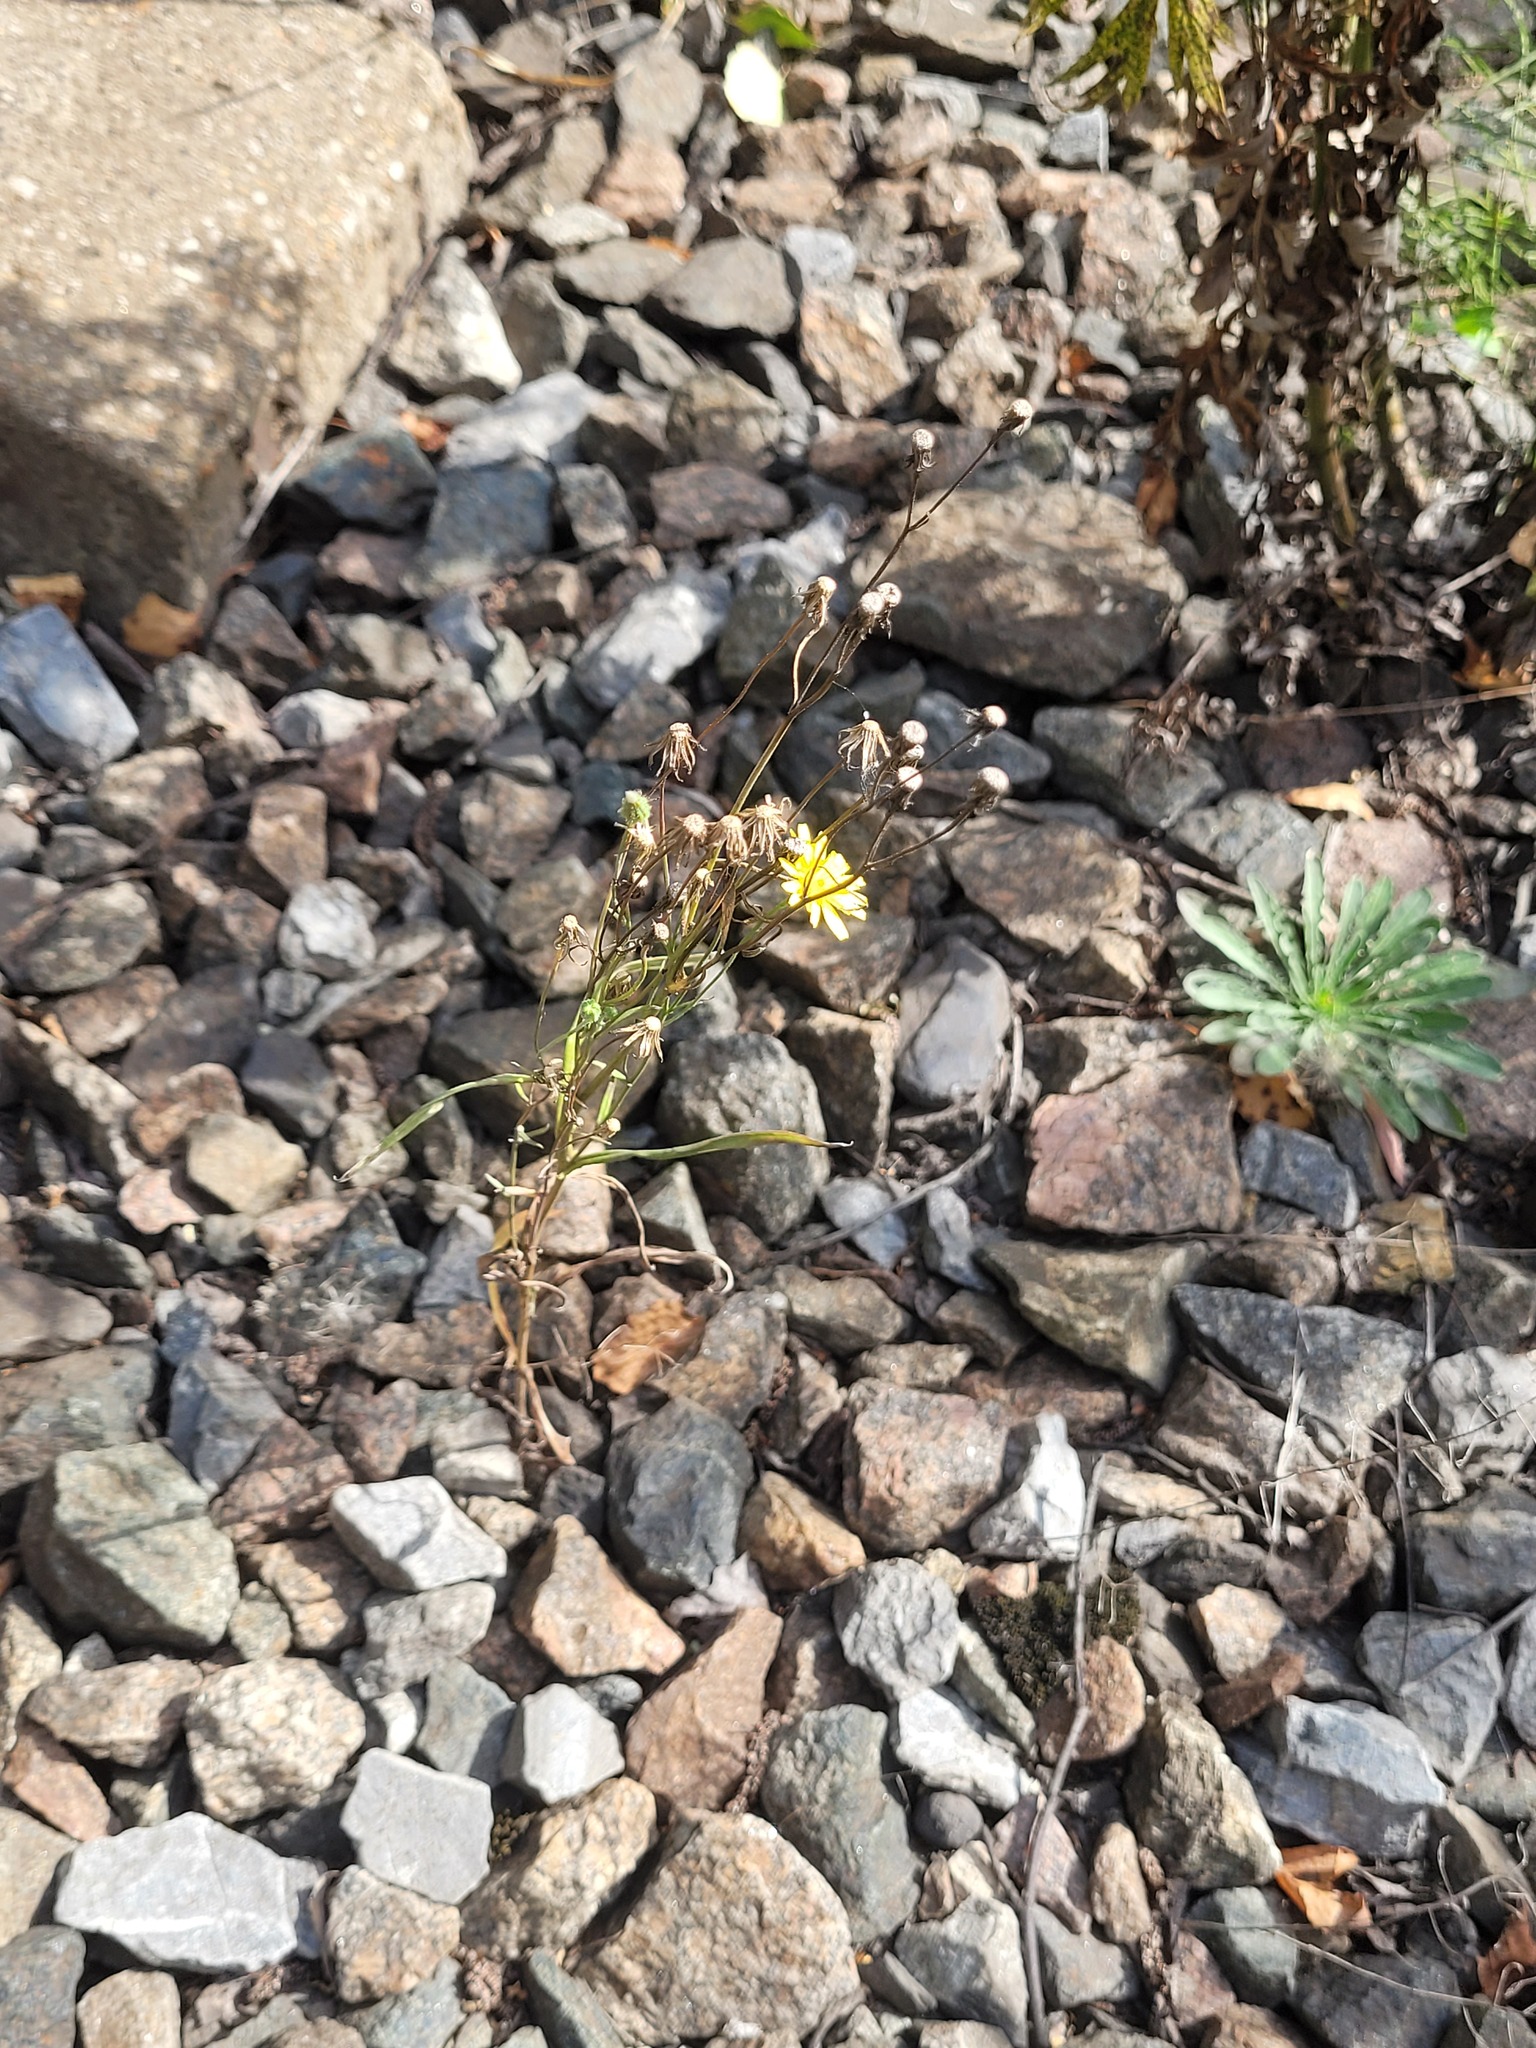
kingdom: Plantae
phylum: Tracheophyta
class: Magnoliopsida
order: Asterales
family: Asteraceae
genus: Crepis
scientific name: Crepis tectorum
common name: Narrow-leaved hawk's-beard
